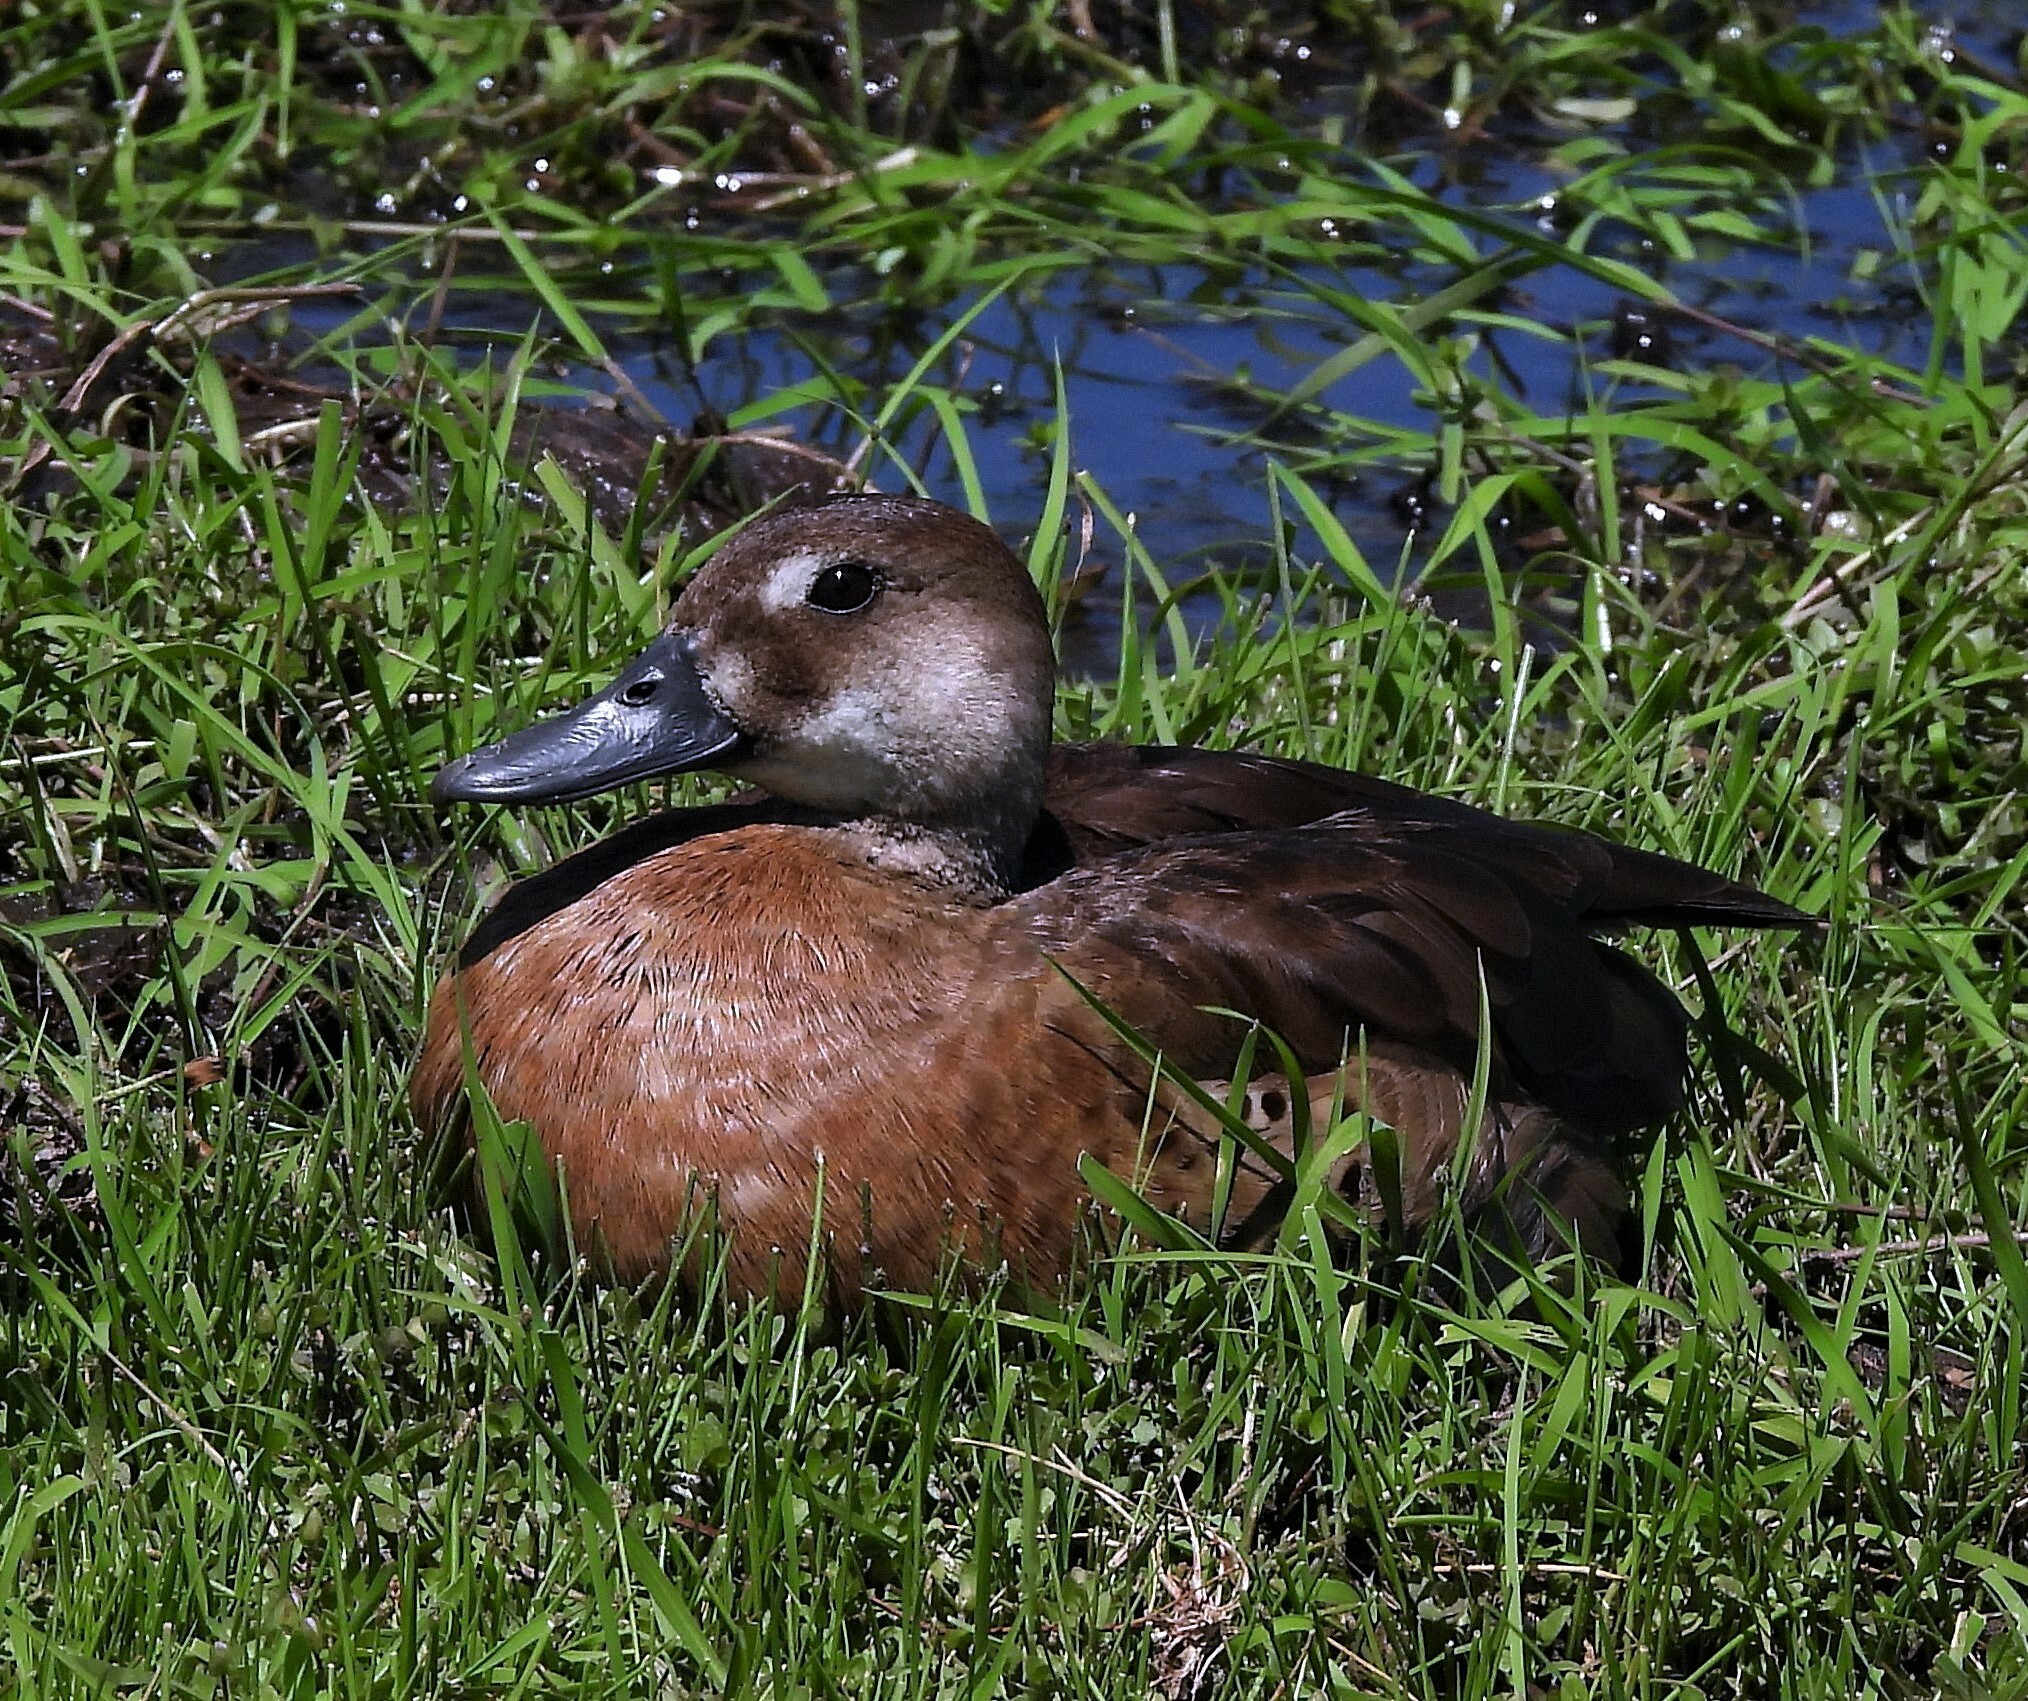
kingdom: Animalia
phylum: Chordata
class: Aves
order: Anseriformes
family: Anatidae
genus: Amazonetta
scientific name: Amazonetta brasiliensis
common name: Brazilian teal
